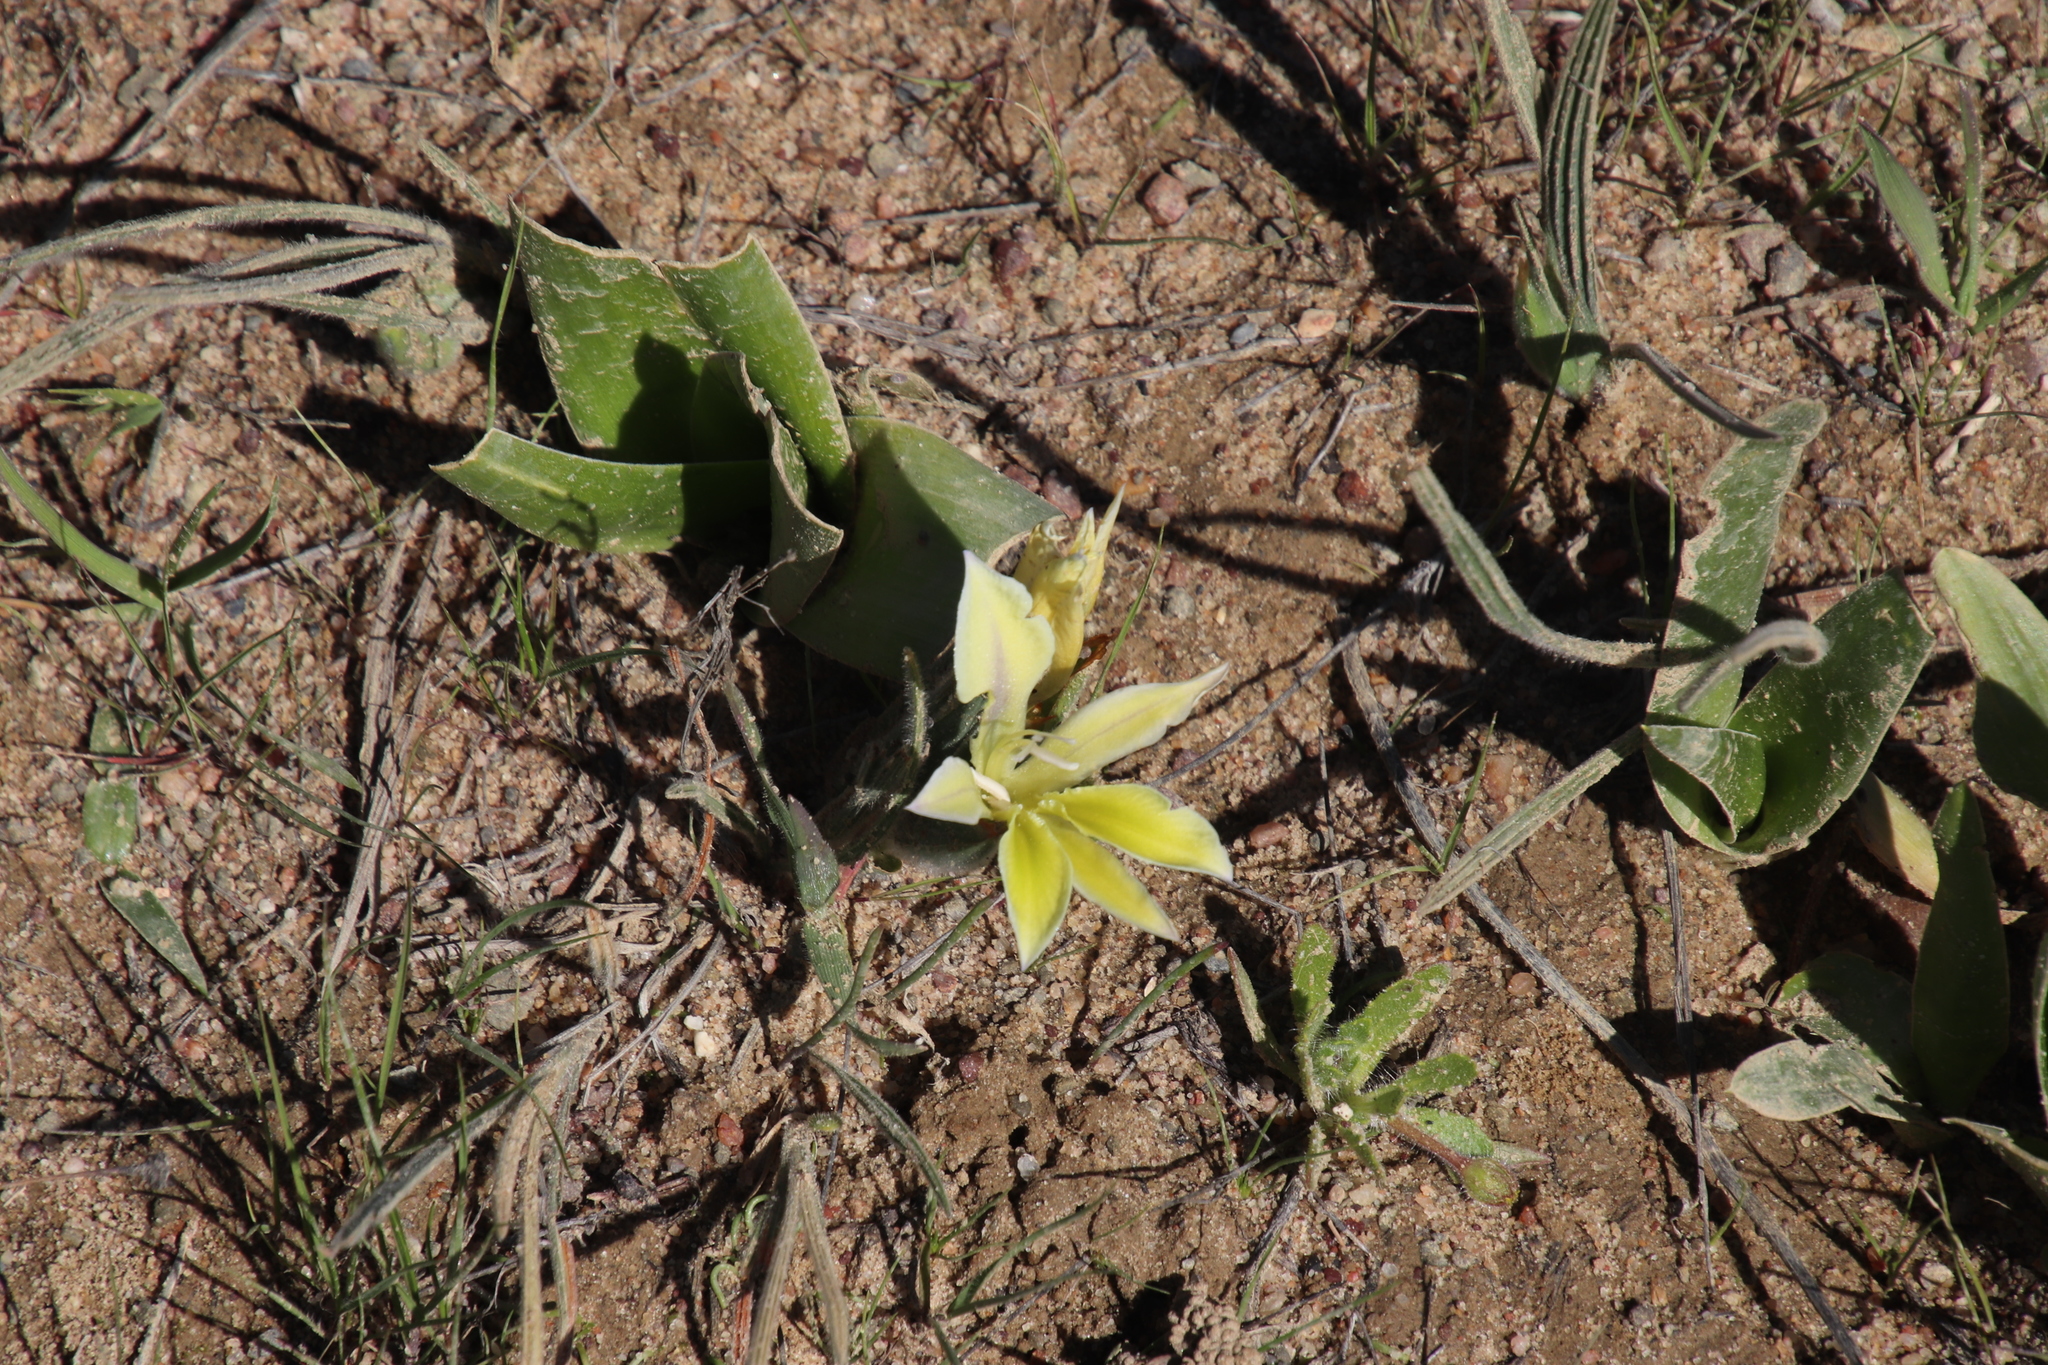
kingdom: Plantae
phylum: Tracheophyta
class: Liliopsida
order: Asparagales
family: Iridaceae
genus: Babiana
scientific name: Babiana vanzijliae
